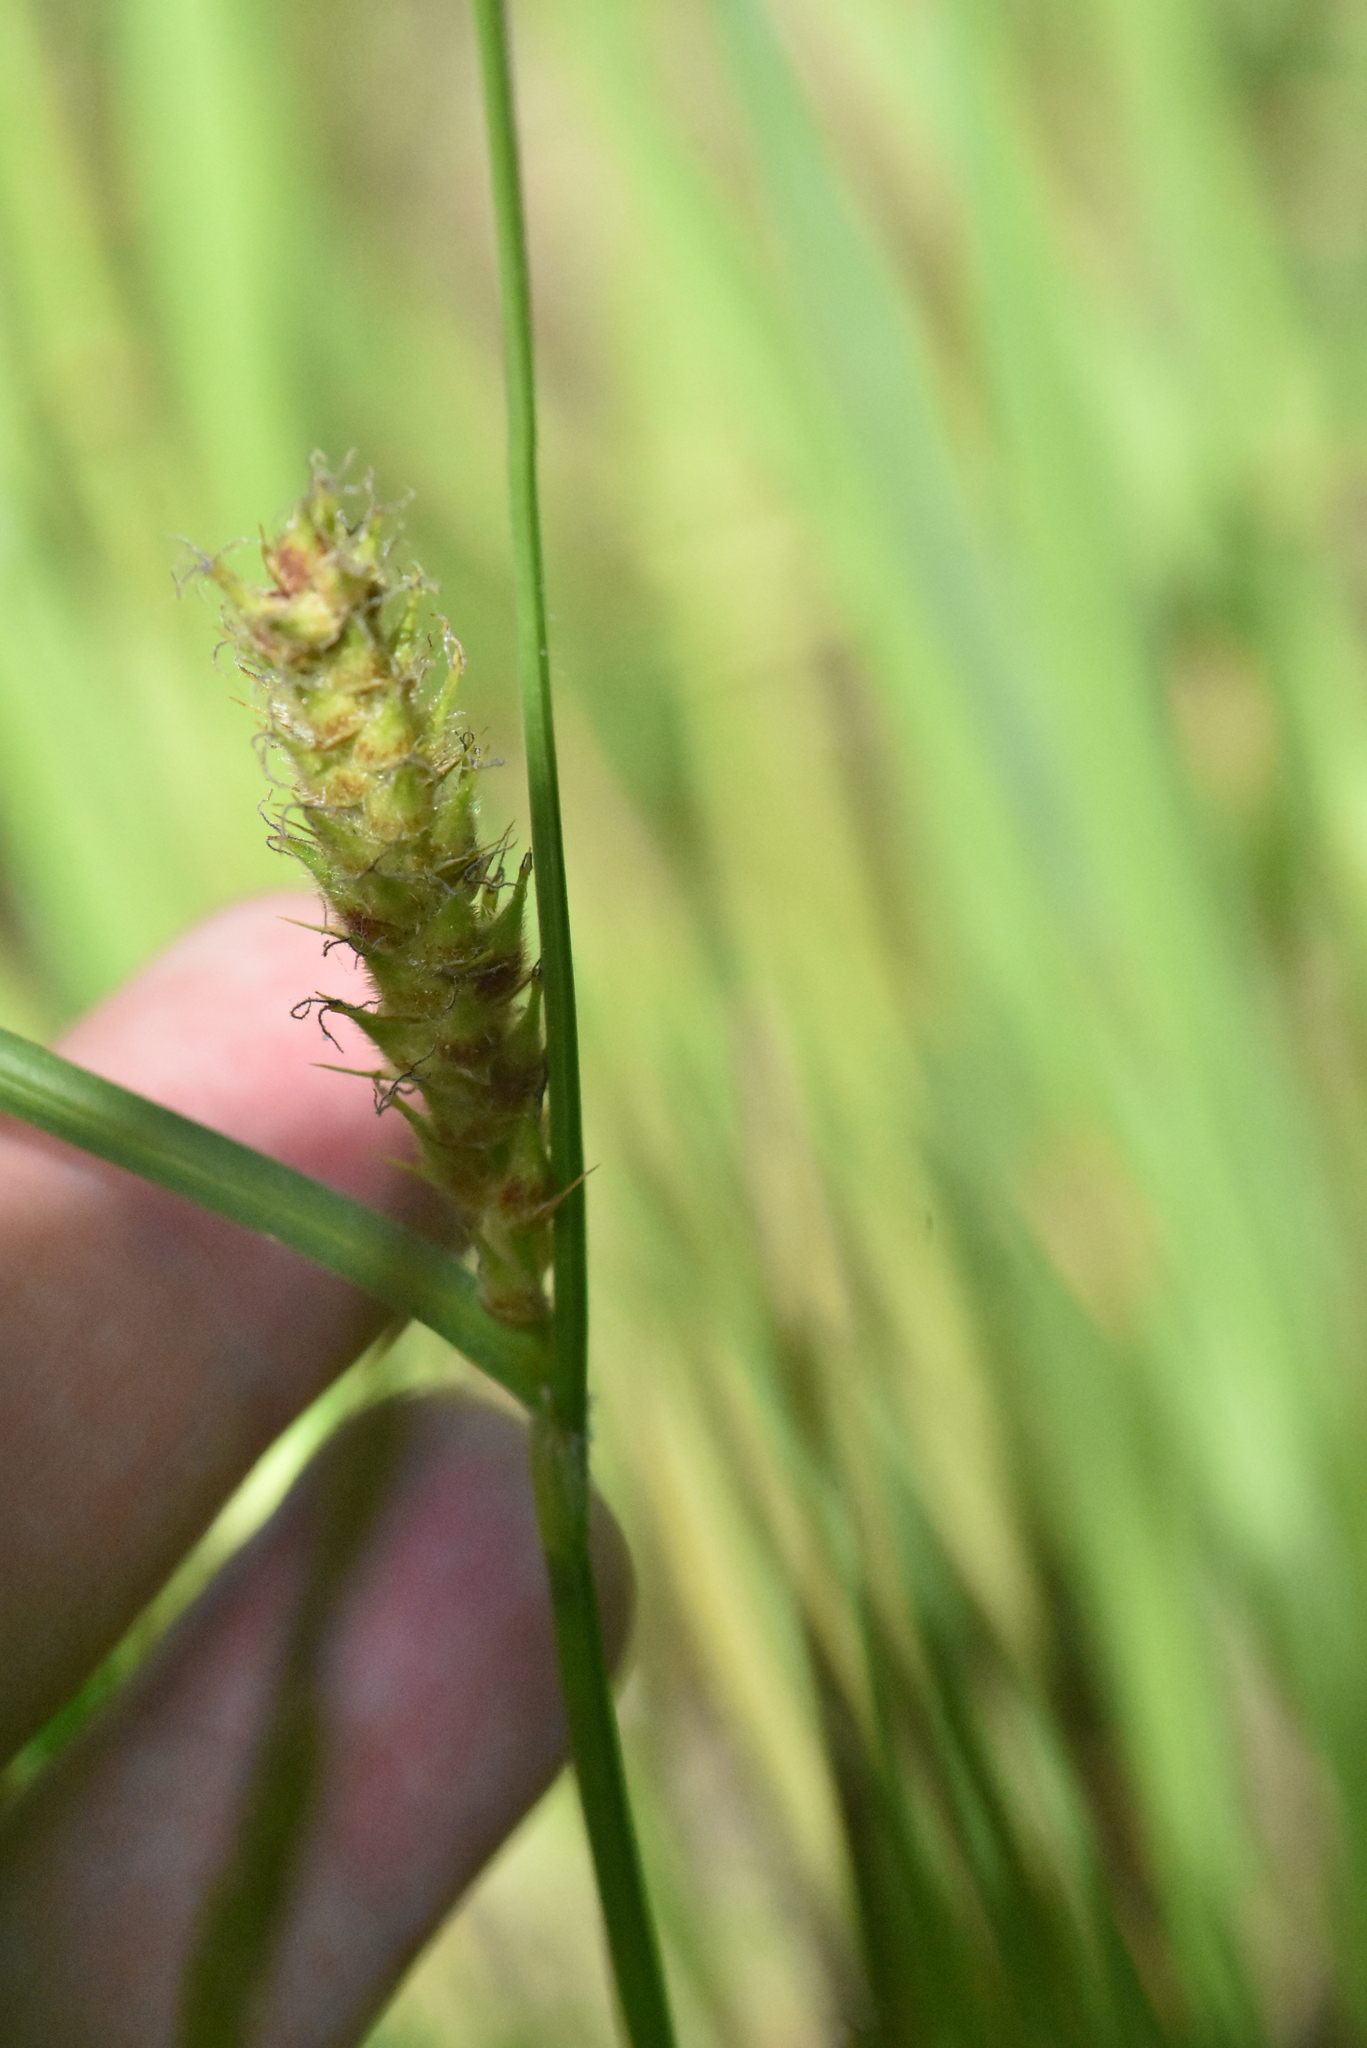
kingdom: Plantae
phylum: Tracheophyta
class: Liliopsida
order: Poales
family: Cyperaceae
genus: Carex
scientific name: Carex hirta
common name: Hairy sedge
